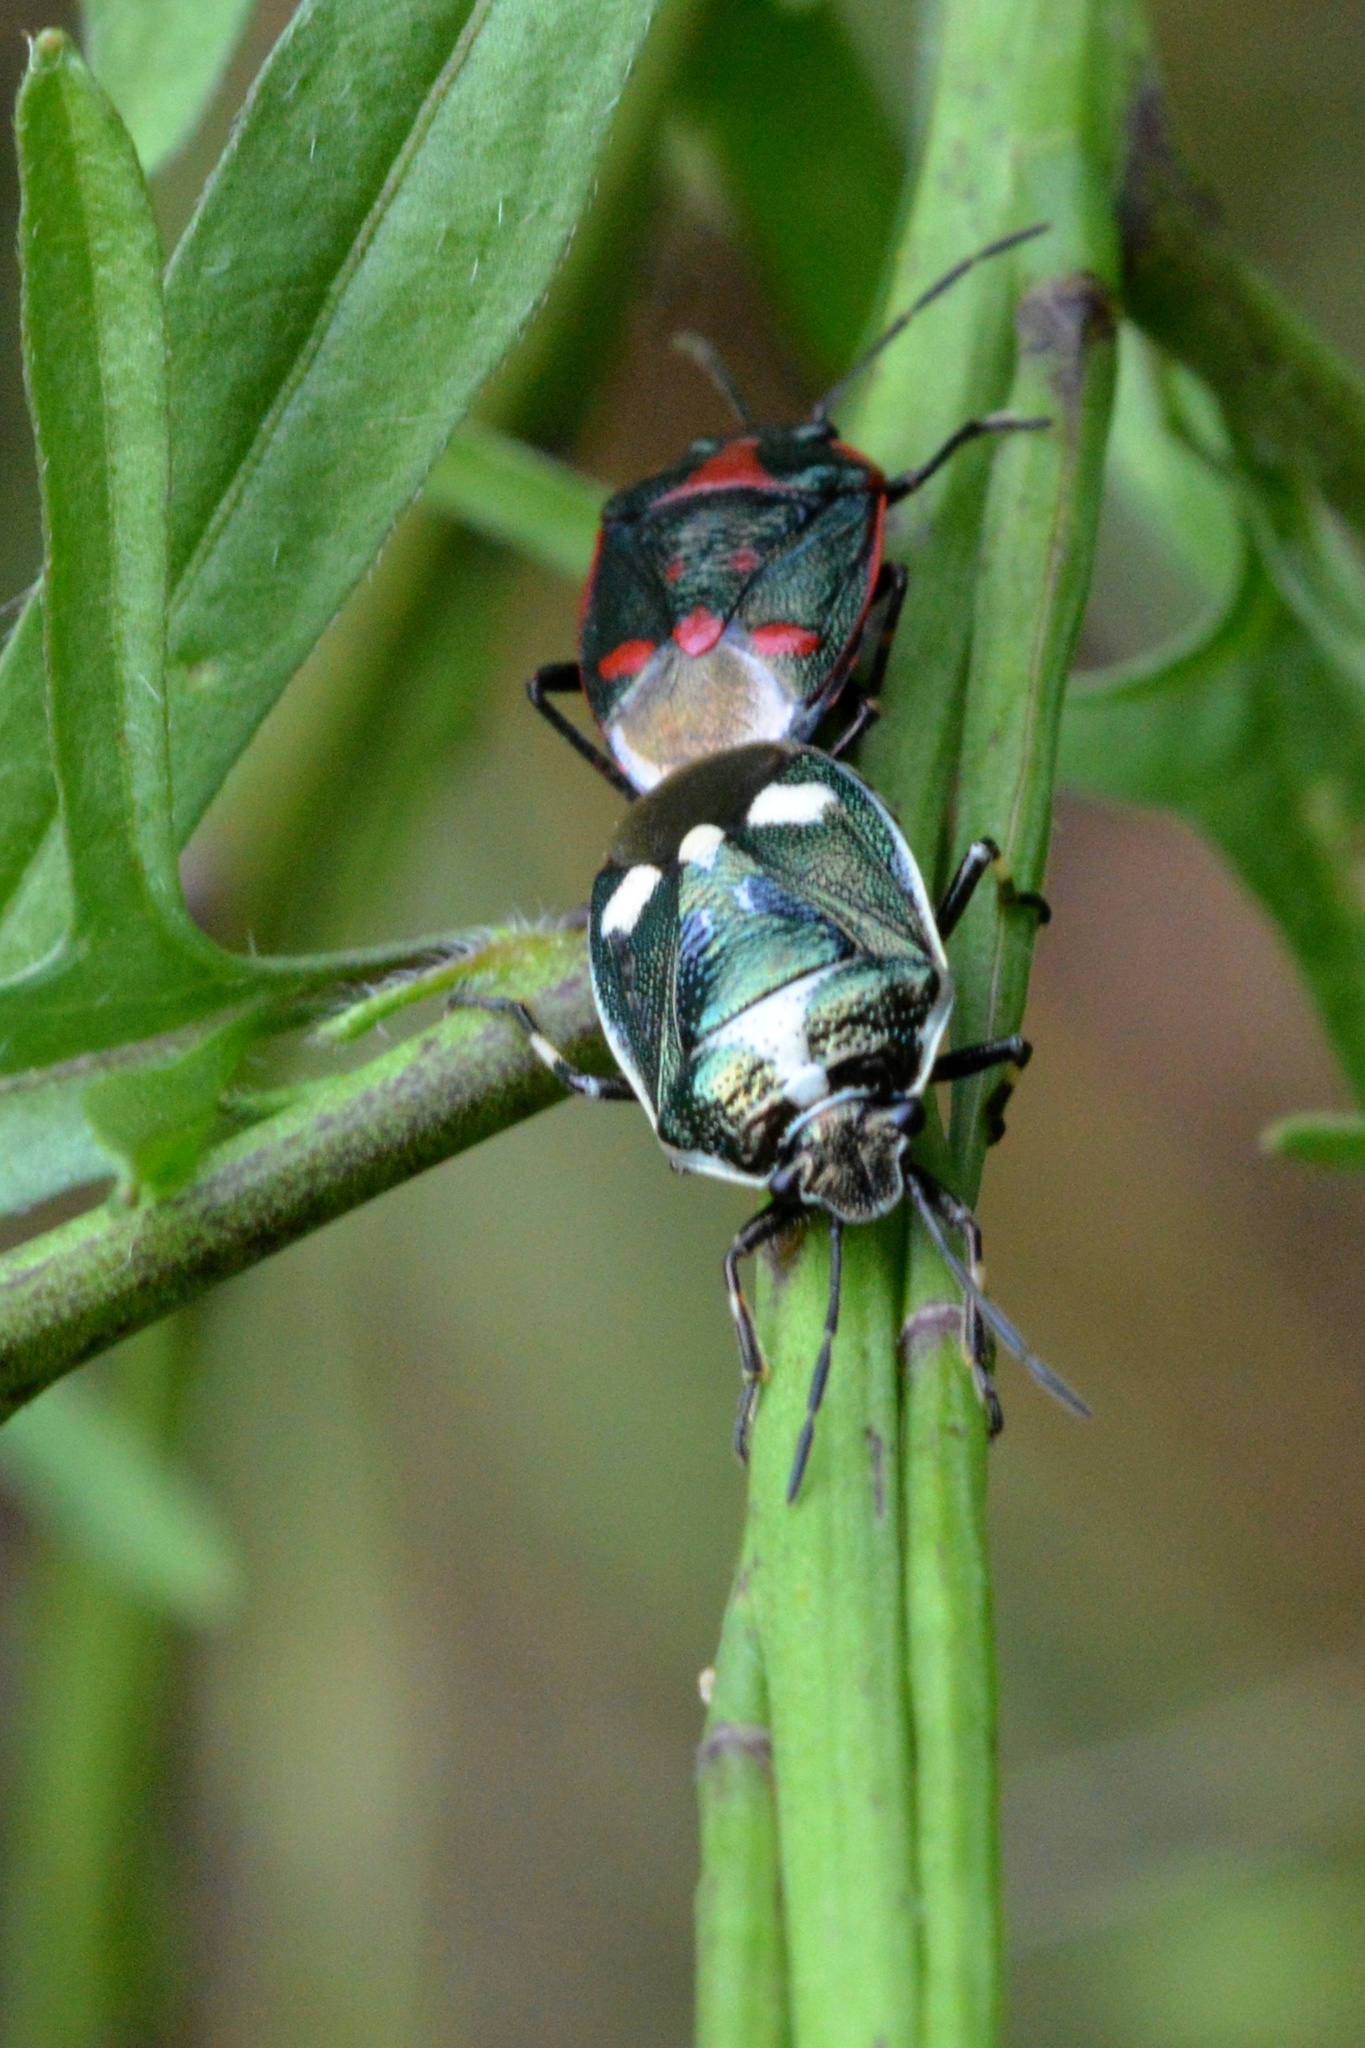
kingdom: Animalia
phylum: Arthropoda
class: Insecta
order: Hemiptera
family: Pentatomidae
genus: Eurydema
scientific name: Eurydema oleracea
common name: Cabbage bug
